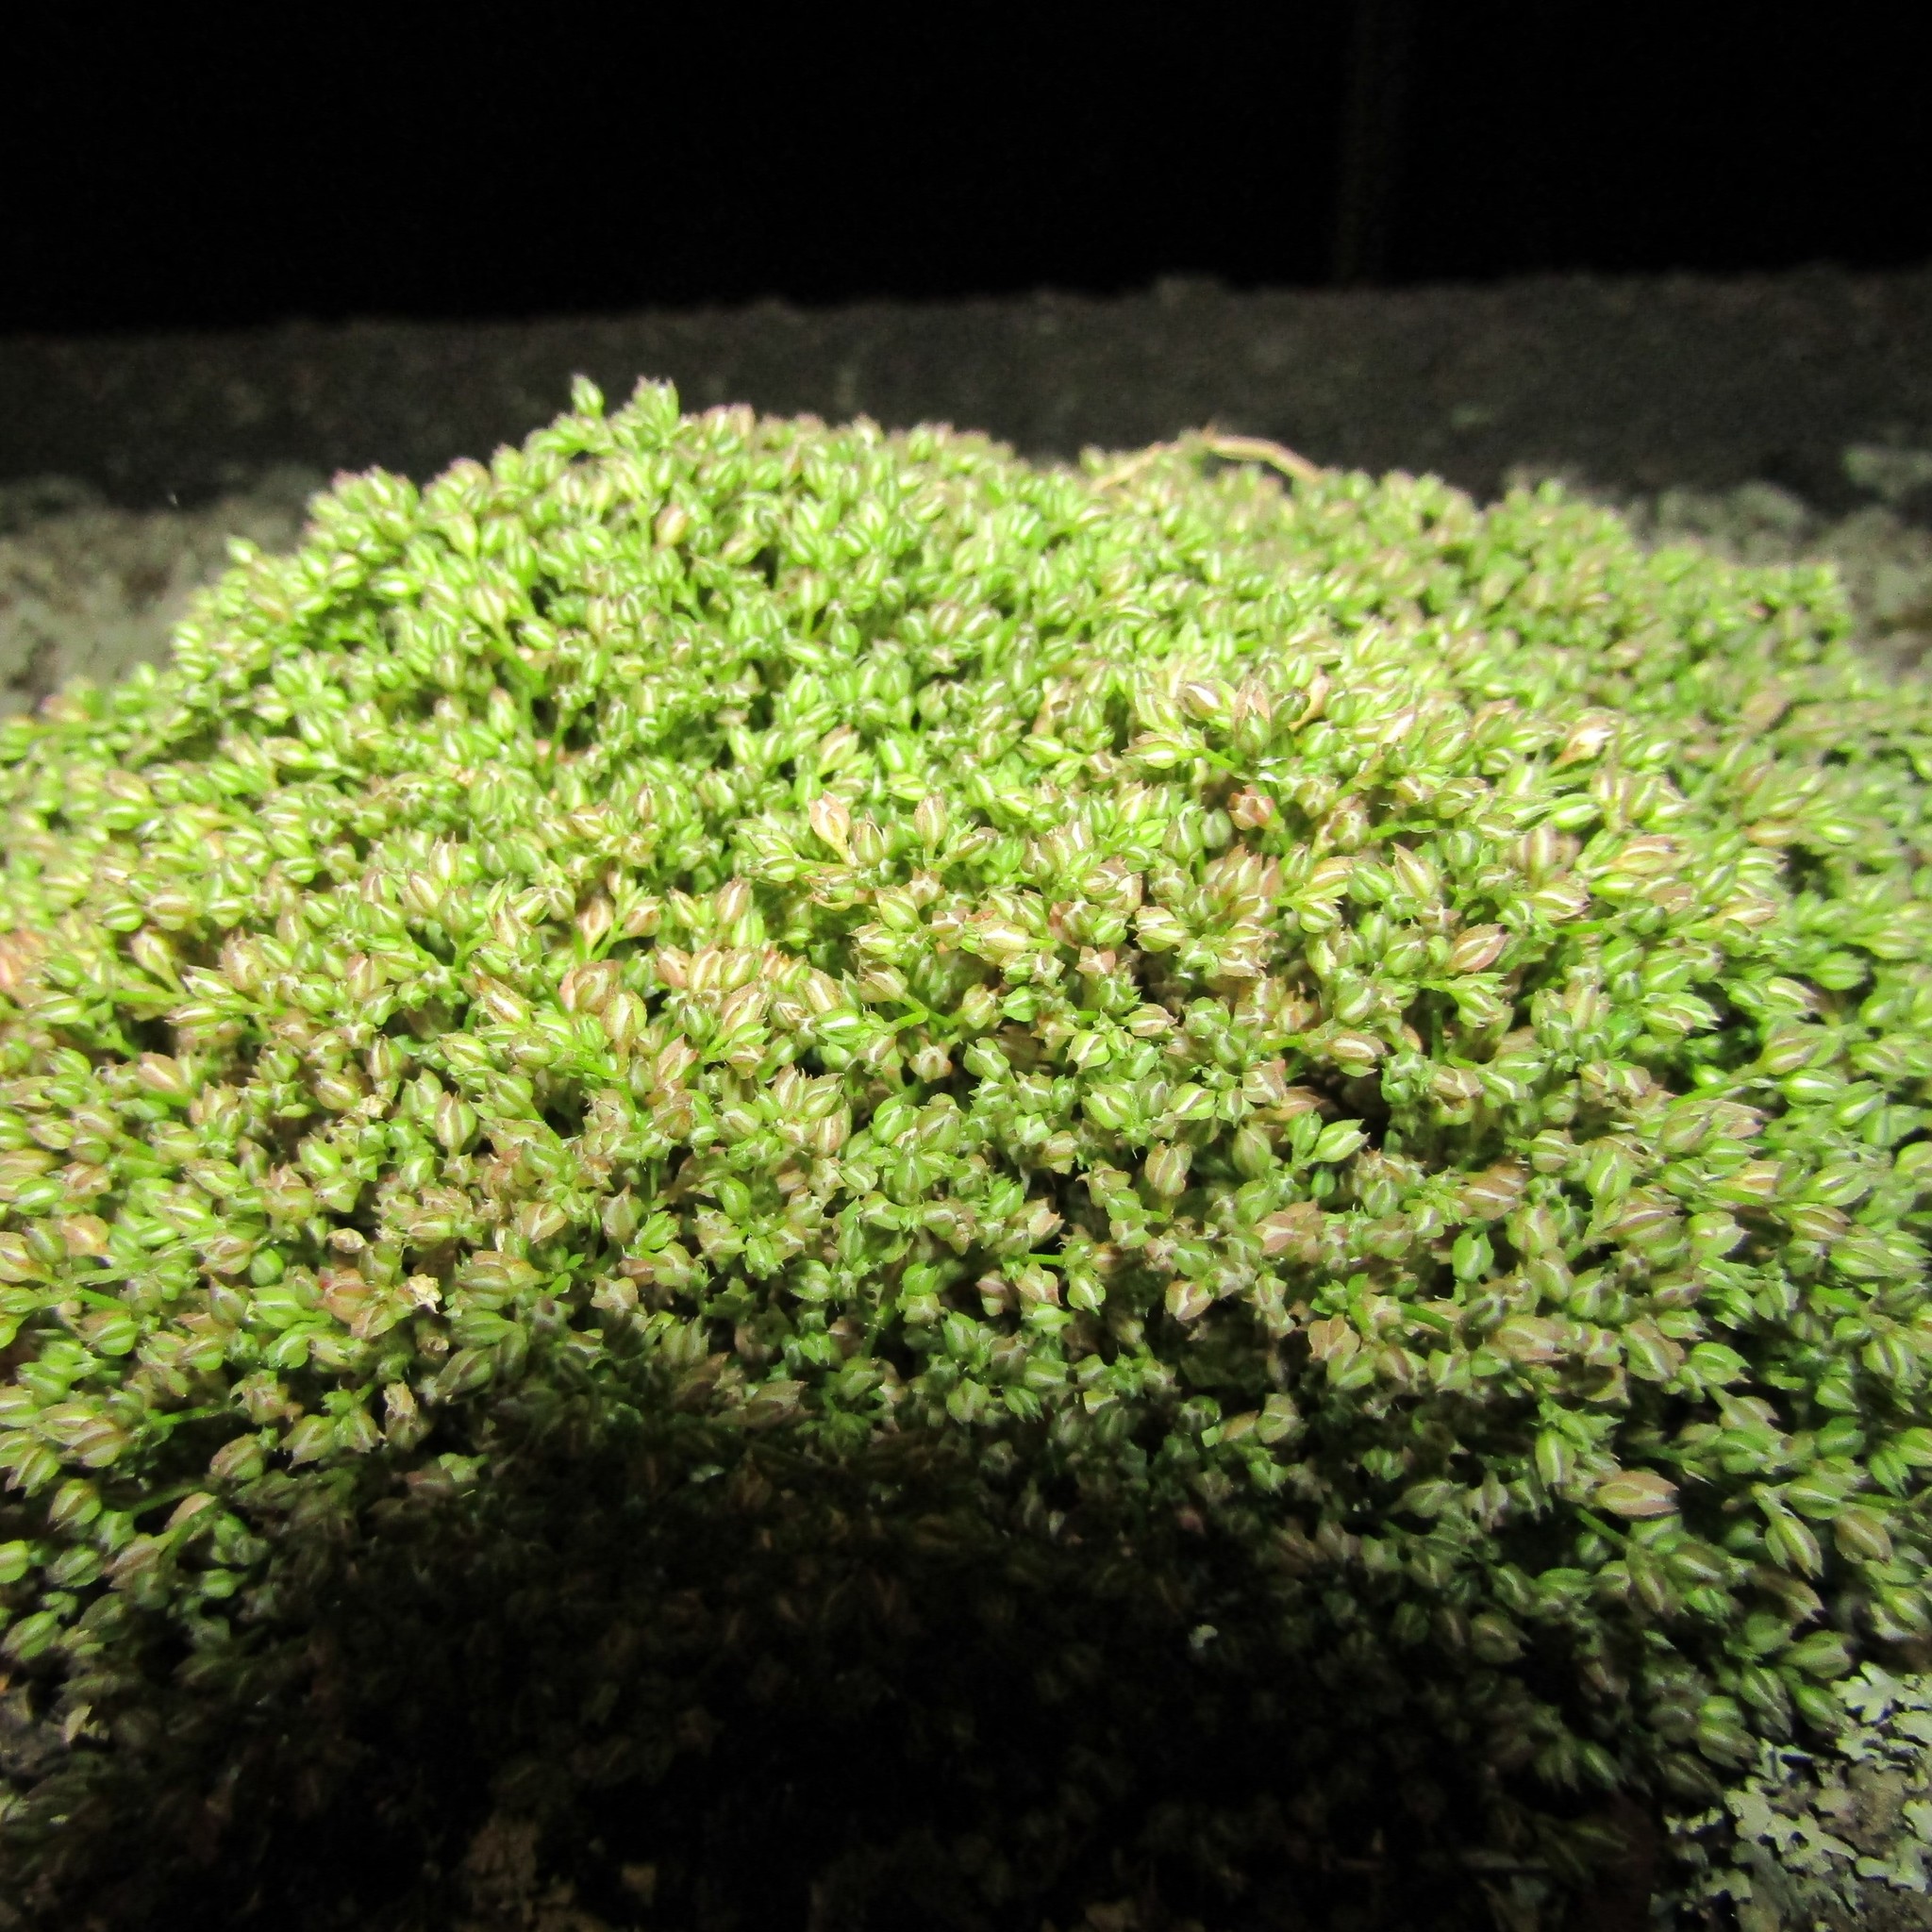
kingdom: Plantae
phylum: Tracheophyta
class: Magnoliopsida
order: Caryophyllales
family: Caryophyllaceae
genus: Polycarpon
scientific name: Polycarpon tetraphyllum
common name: Four-leaved all-seed
